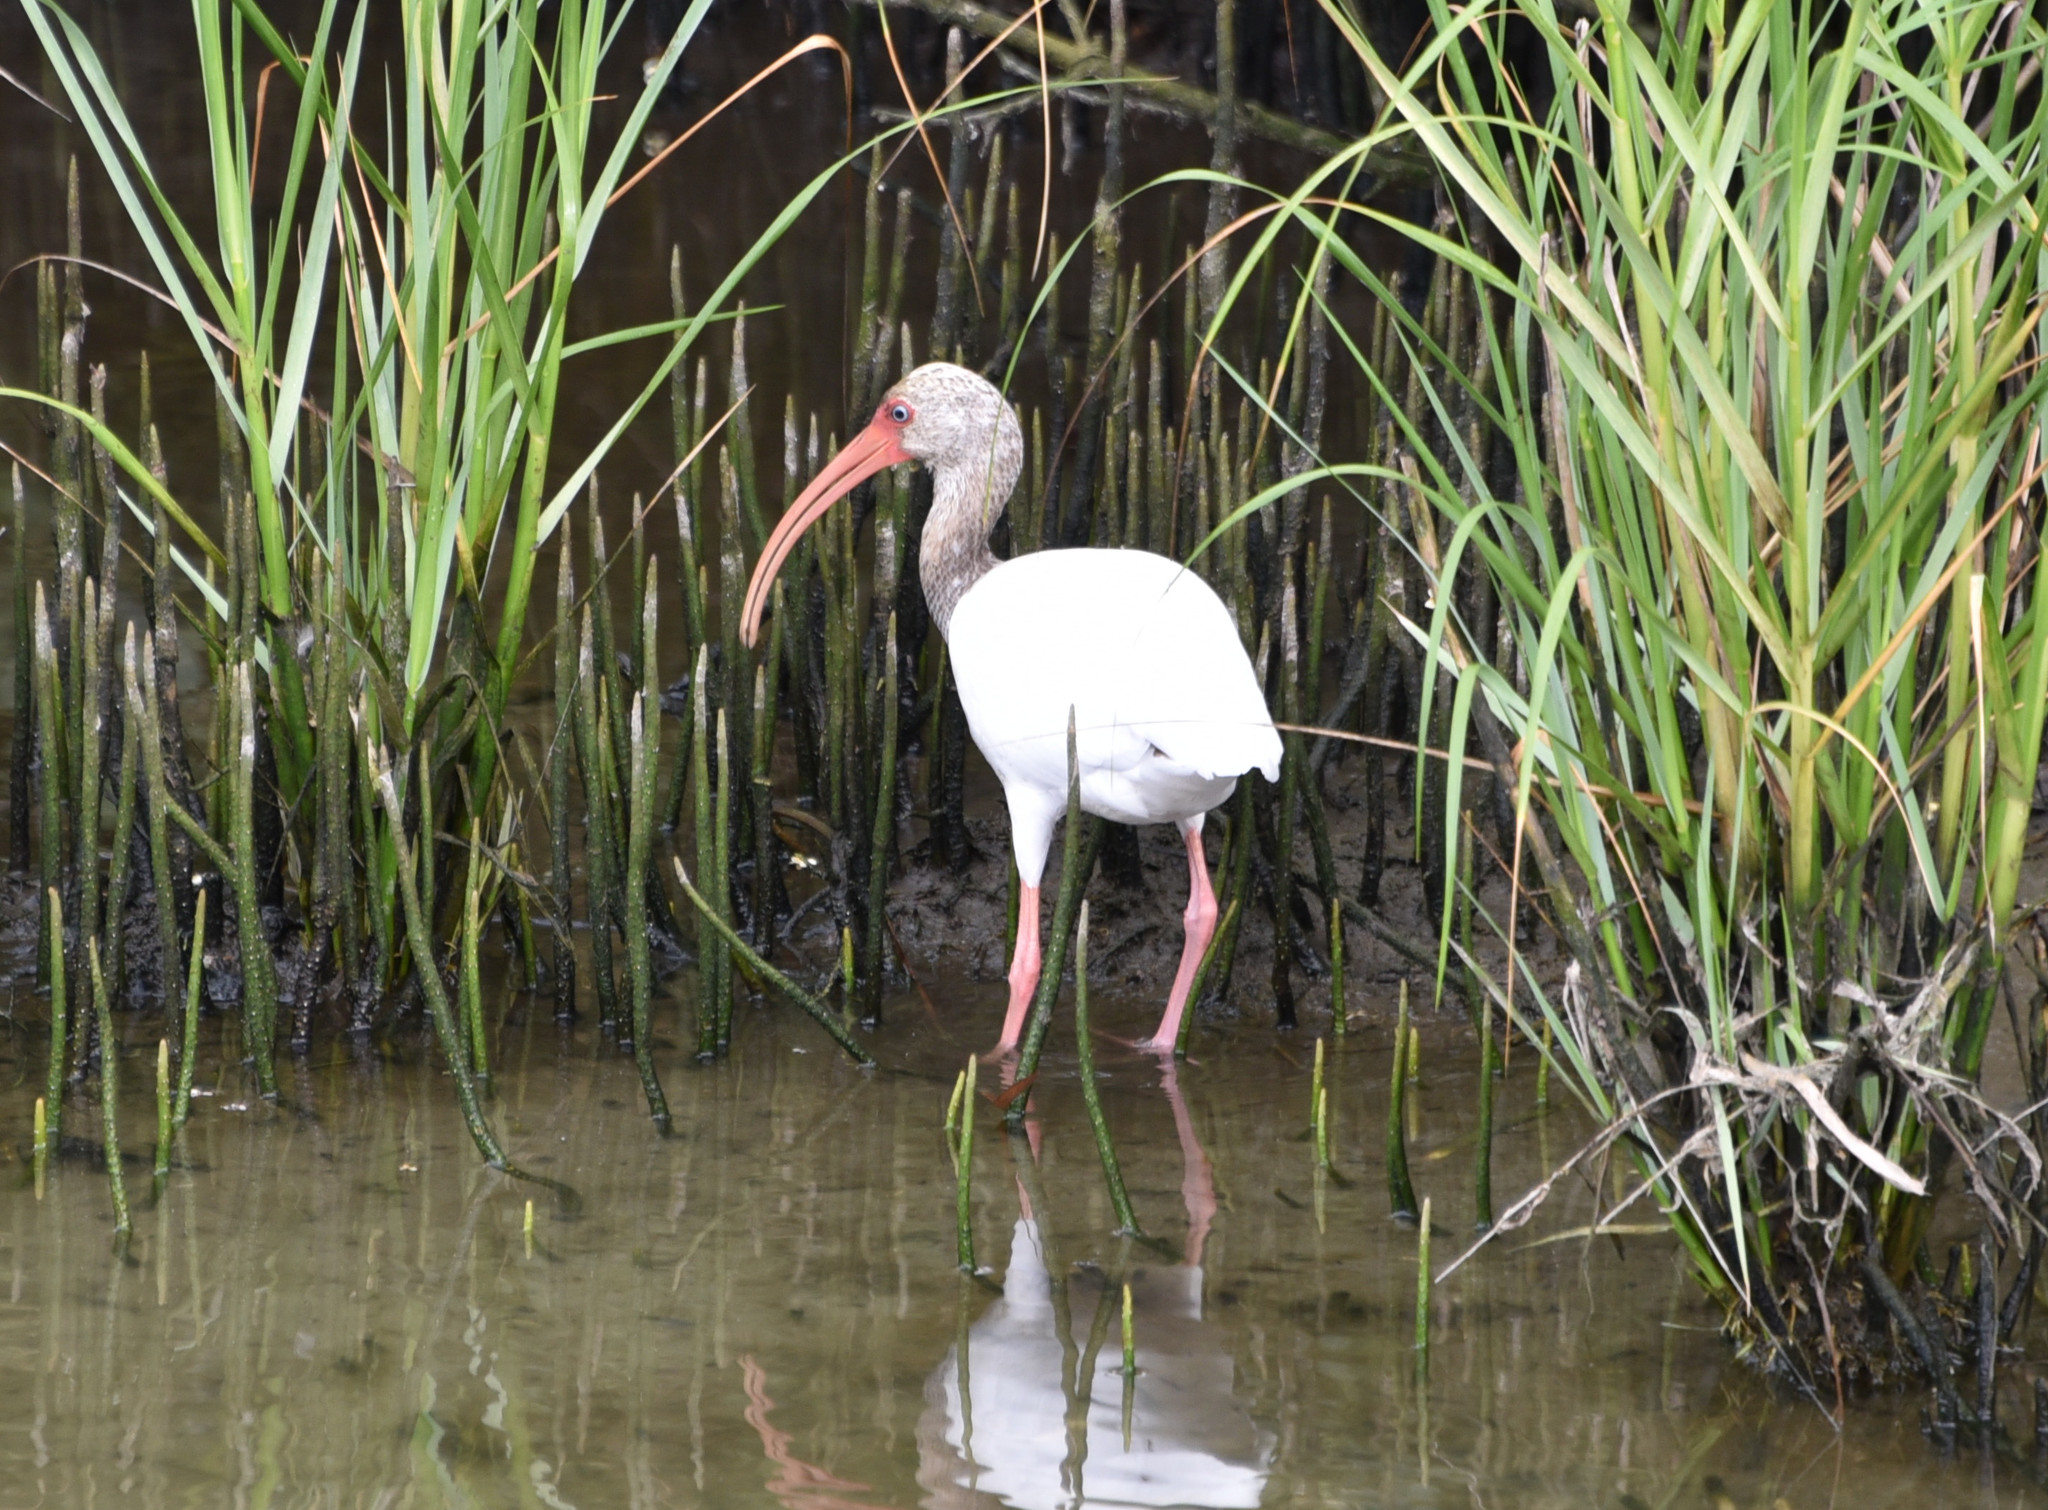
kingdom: Animalia
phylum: Chordata
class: Aves
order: Pelecaniformes
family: Threskiornithidae
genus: Eudocimus
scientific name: Eudocimus albus
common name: White ibis
